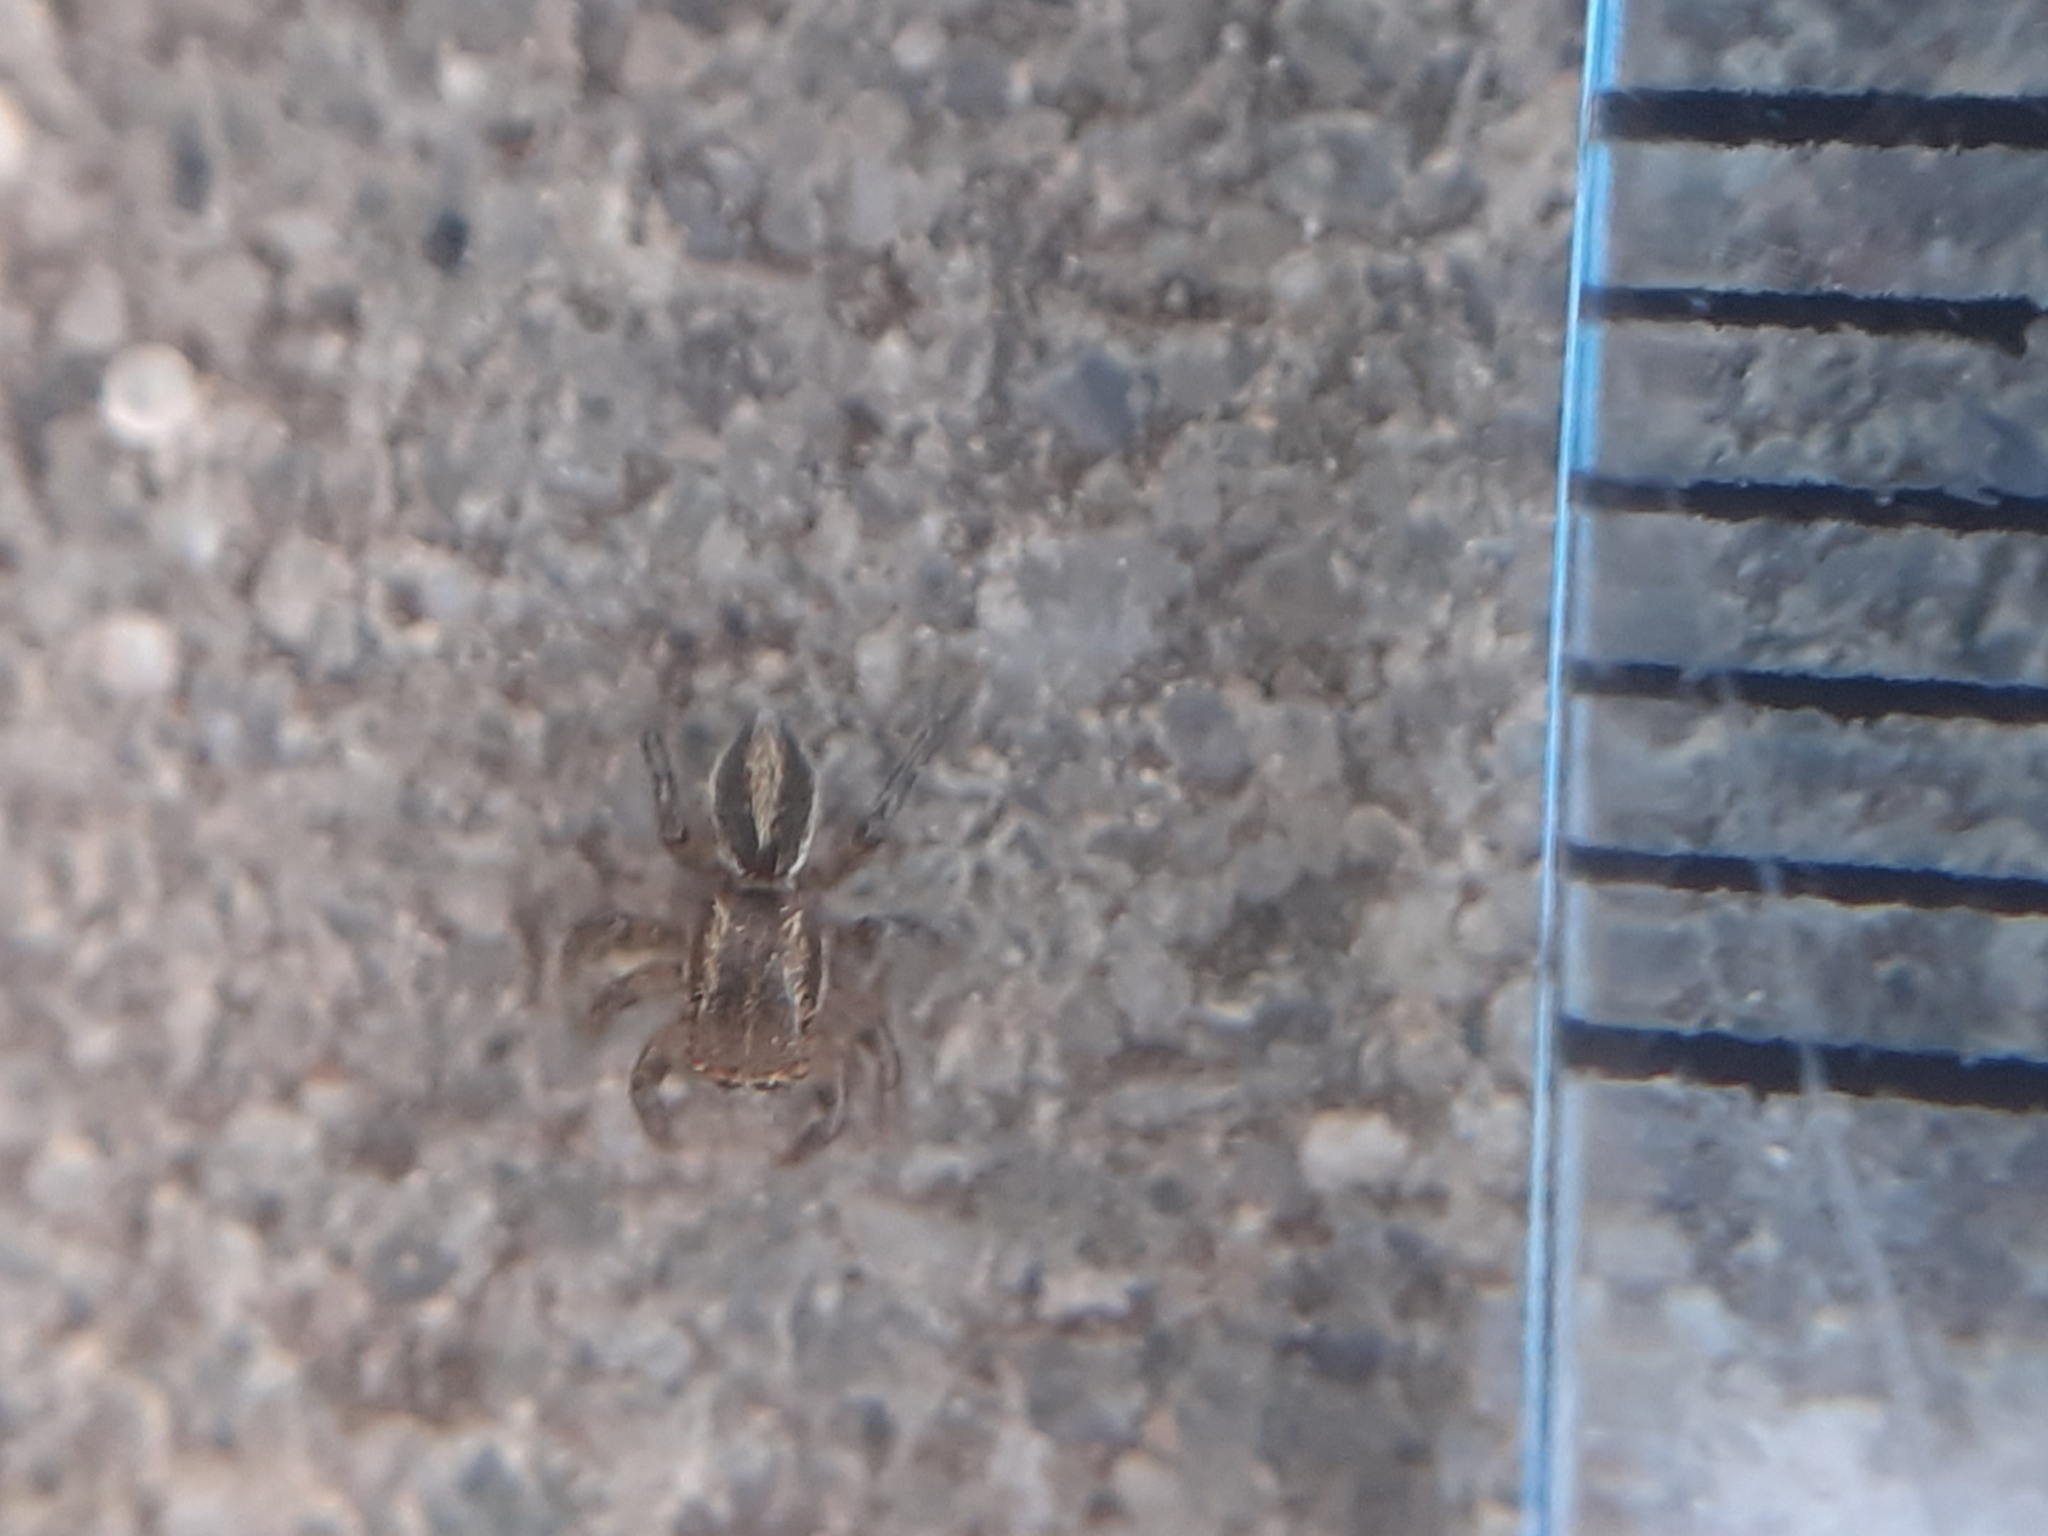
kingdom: Animalia
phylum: Arthropoda
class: Arachnida
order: Araneae
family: Salticidae
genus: Phlegra
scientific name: Phlegra fasciata
